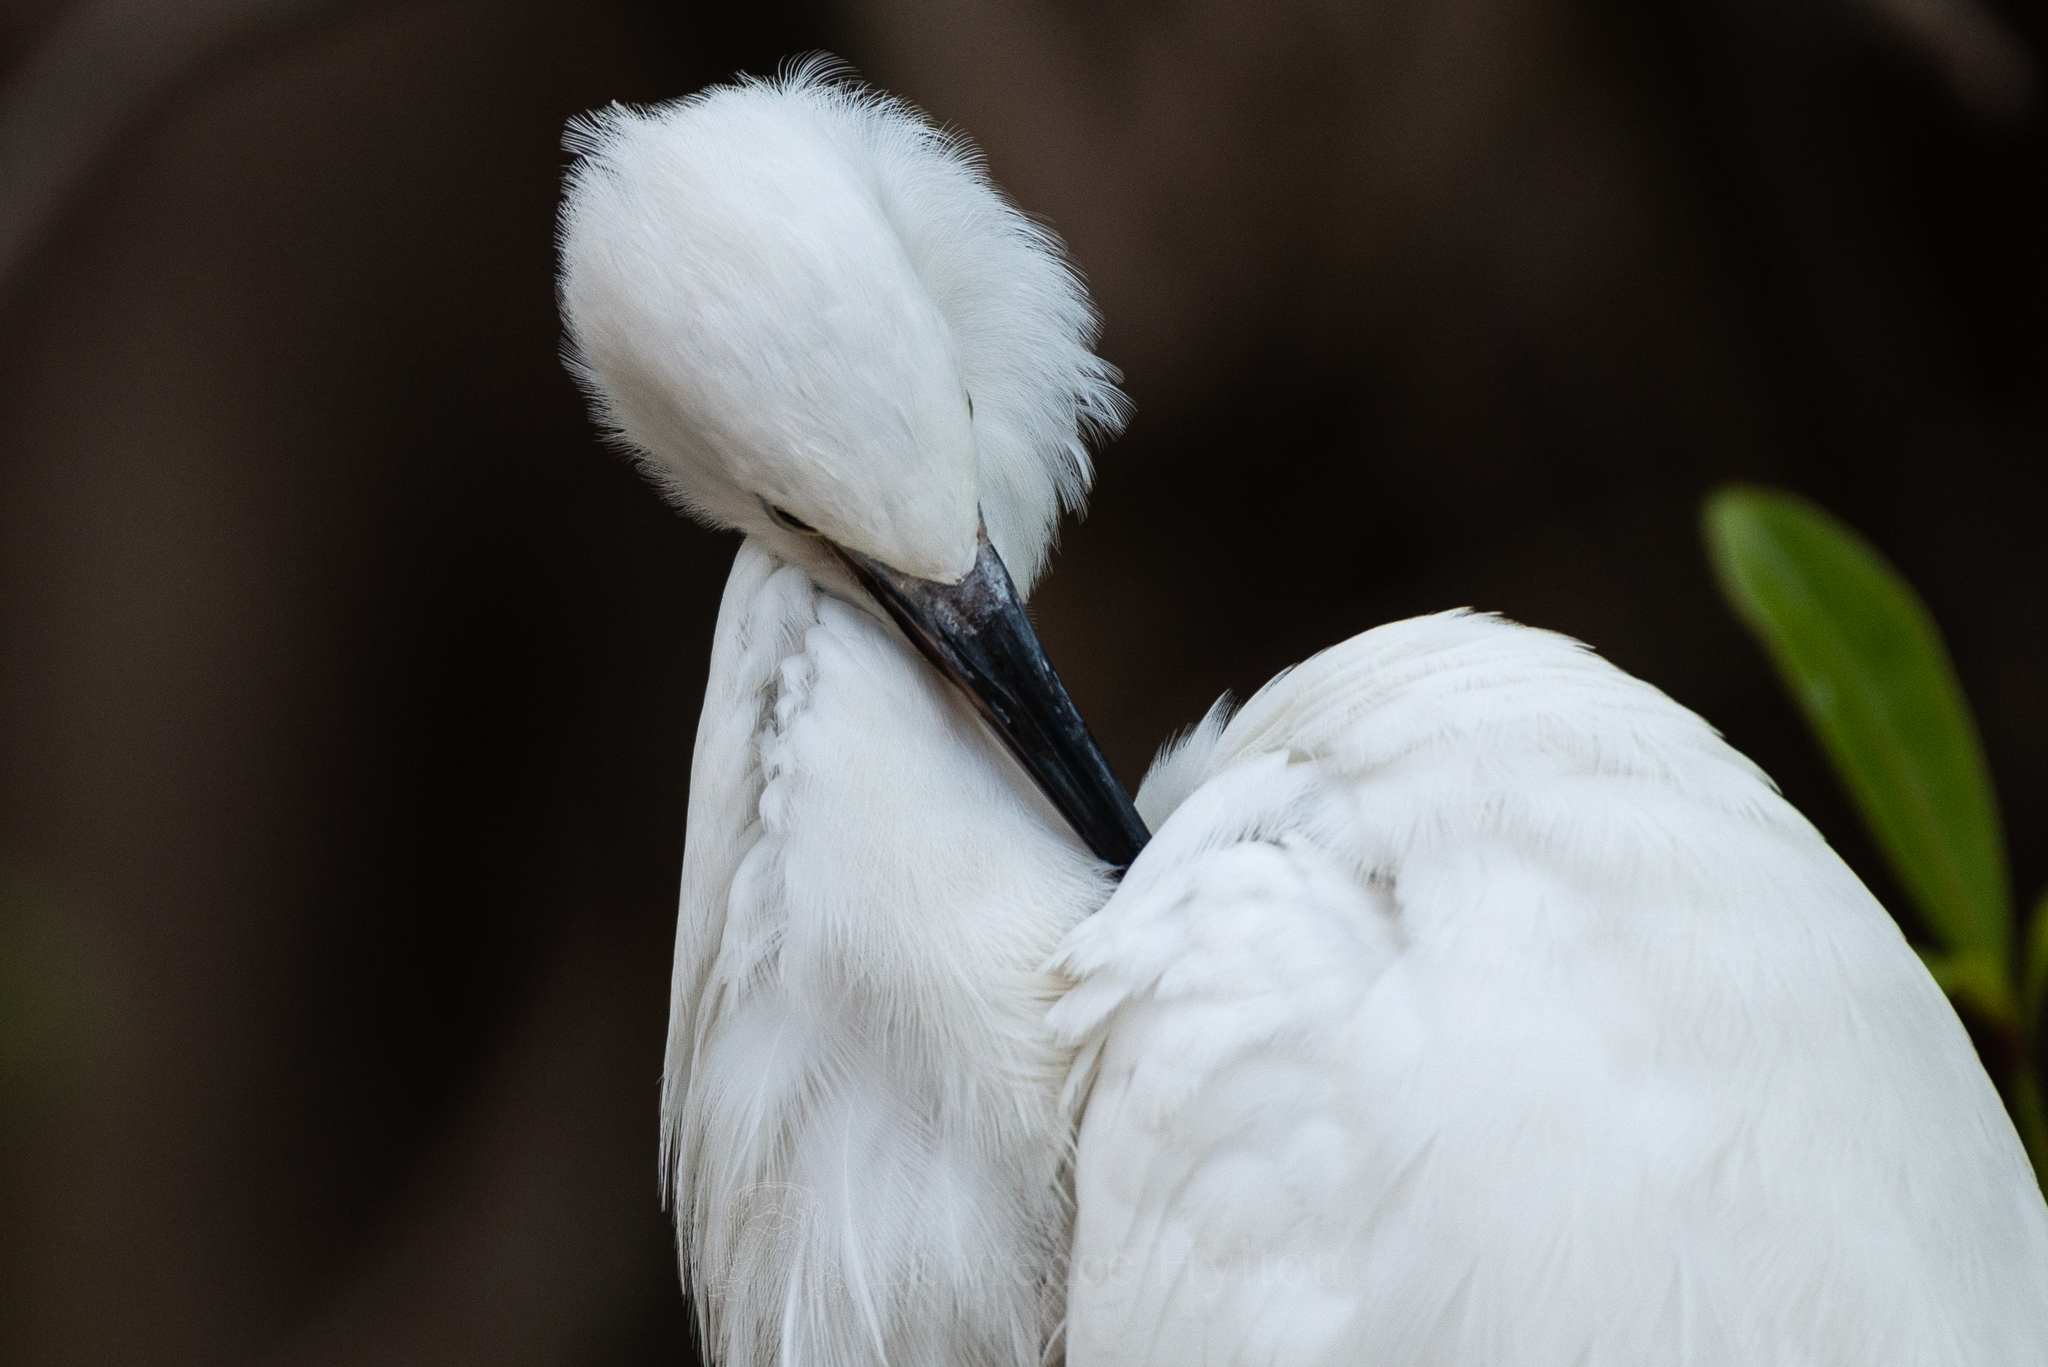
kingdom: Animalia
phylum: Chordata
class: Aves
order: Pelecaniformes
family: Ardeidae
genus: Egretta
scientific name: Egretta garzetta
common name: Little egret
